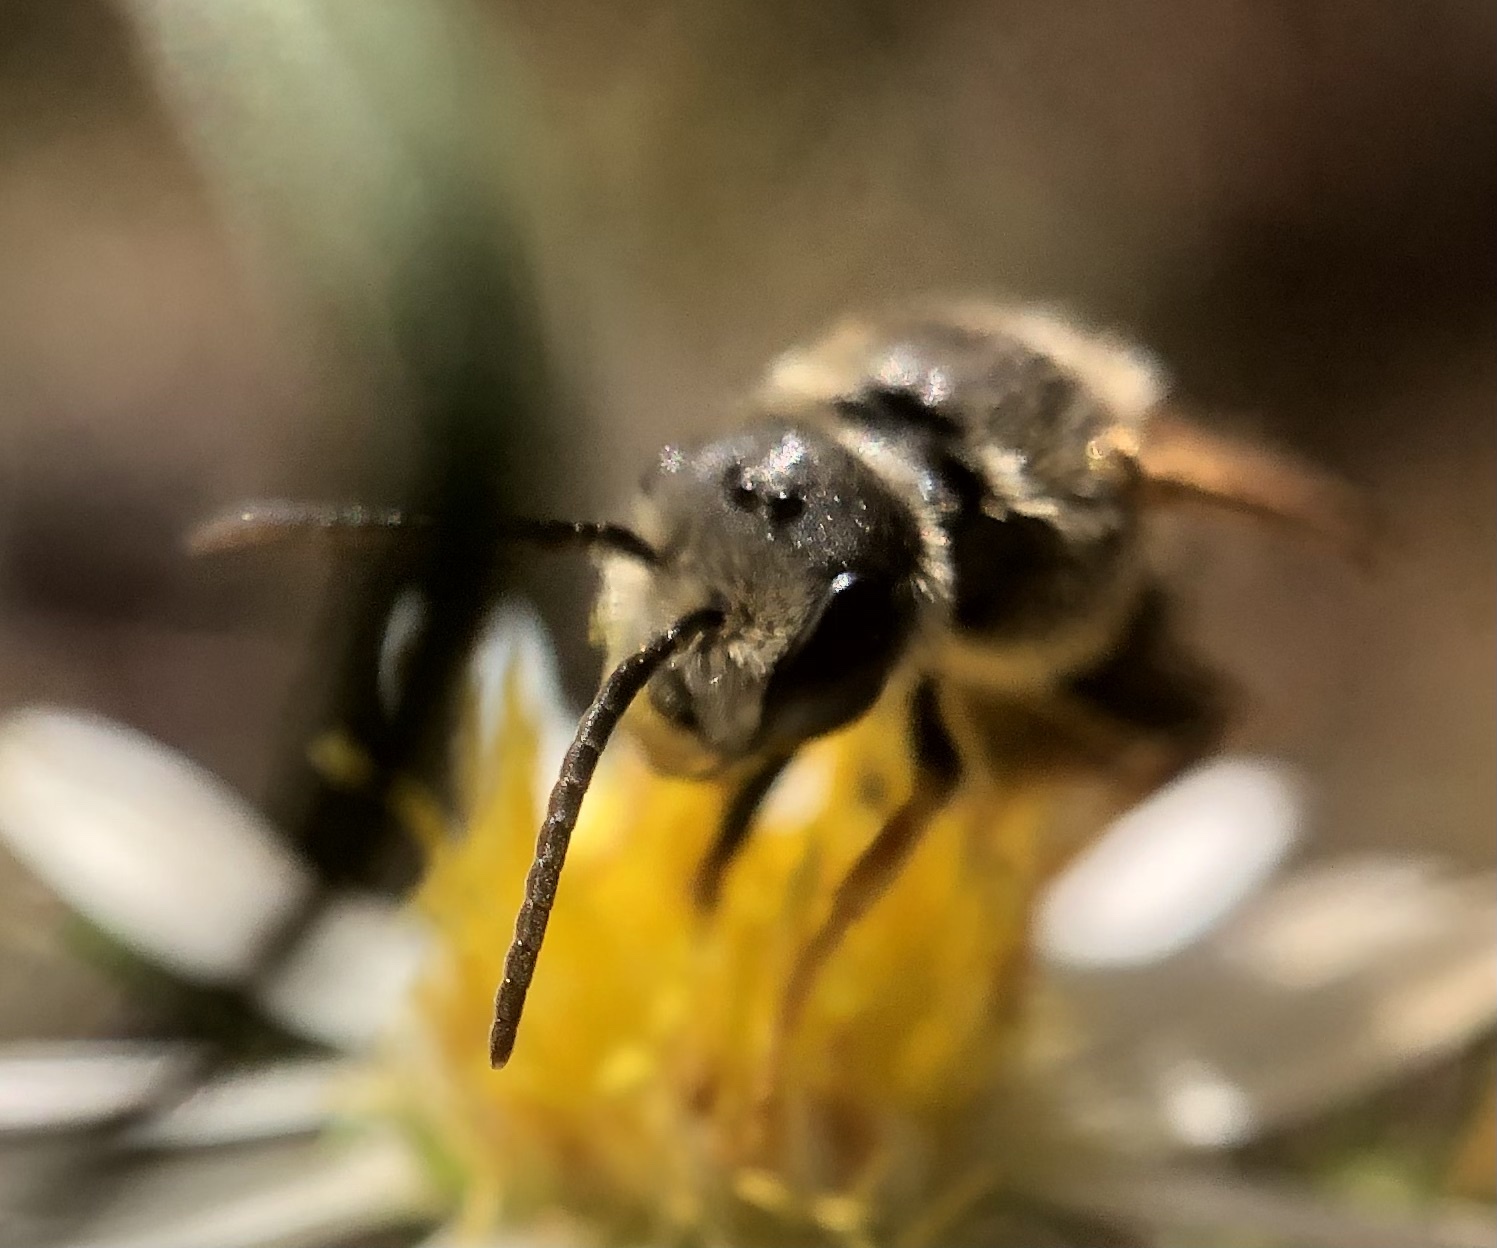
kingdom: Animalia
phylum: Arthropoda
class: Insecta
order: Hymenoptera
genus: Odontalictus
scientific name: Odontalictus
